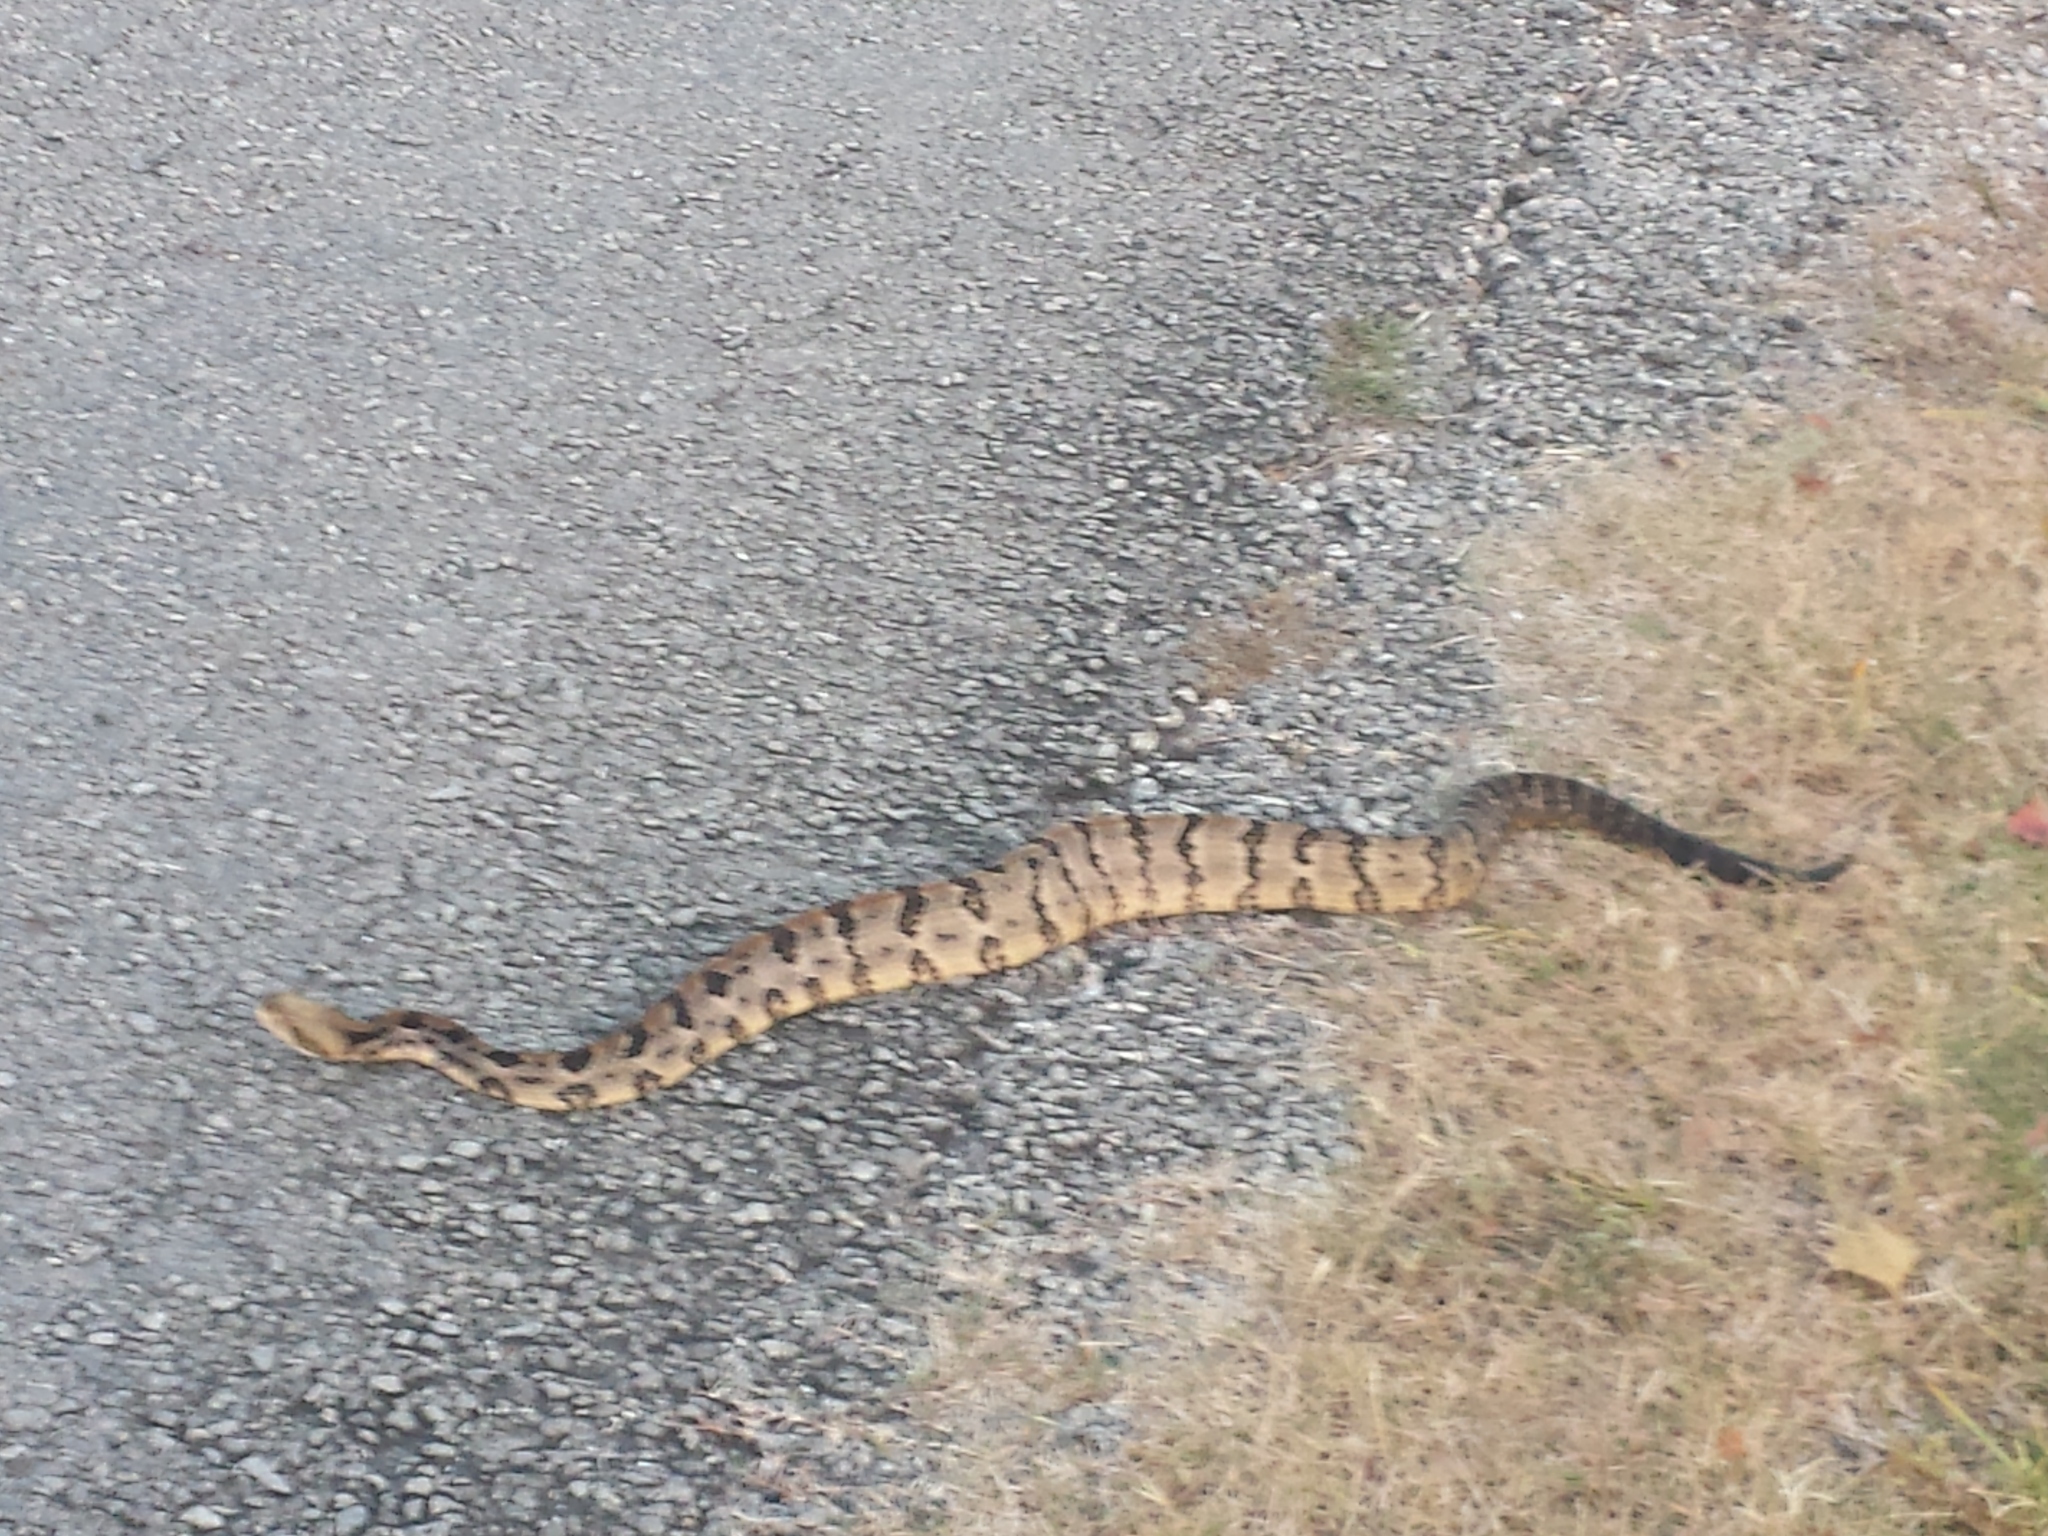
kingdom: Animalia
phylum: Chordata
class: Squamata
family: Viperidae
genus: Crotalus
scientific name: Crotalus horridus
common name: Timber rattlesnake
